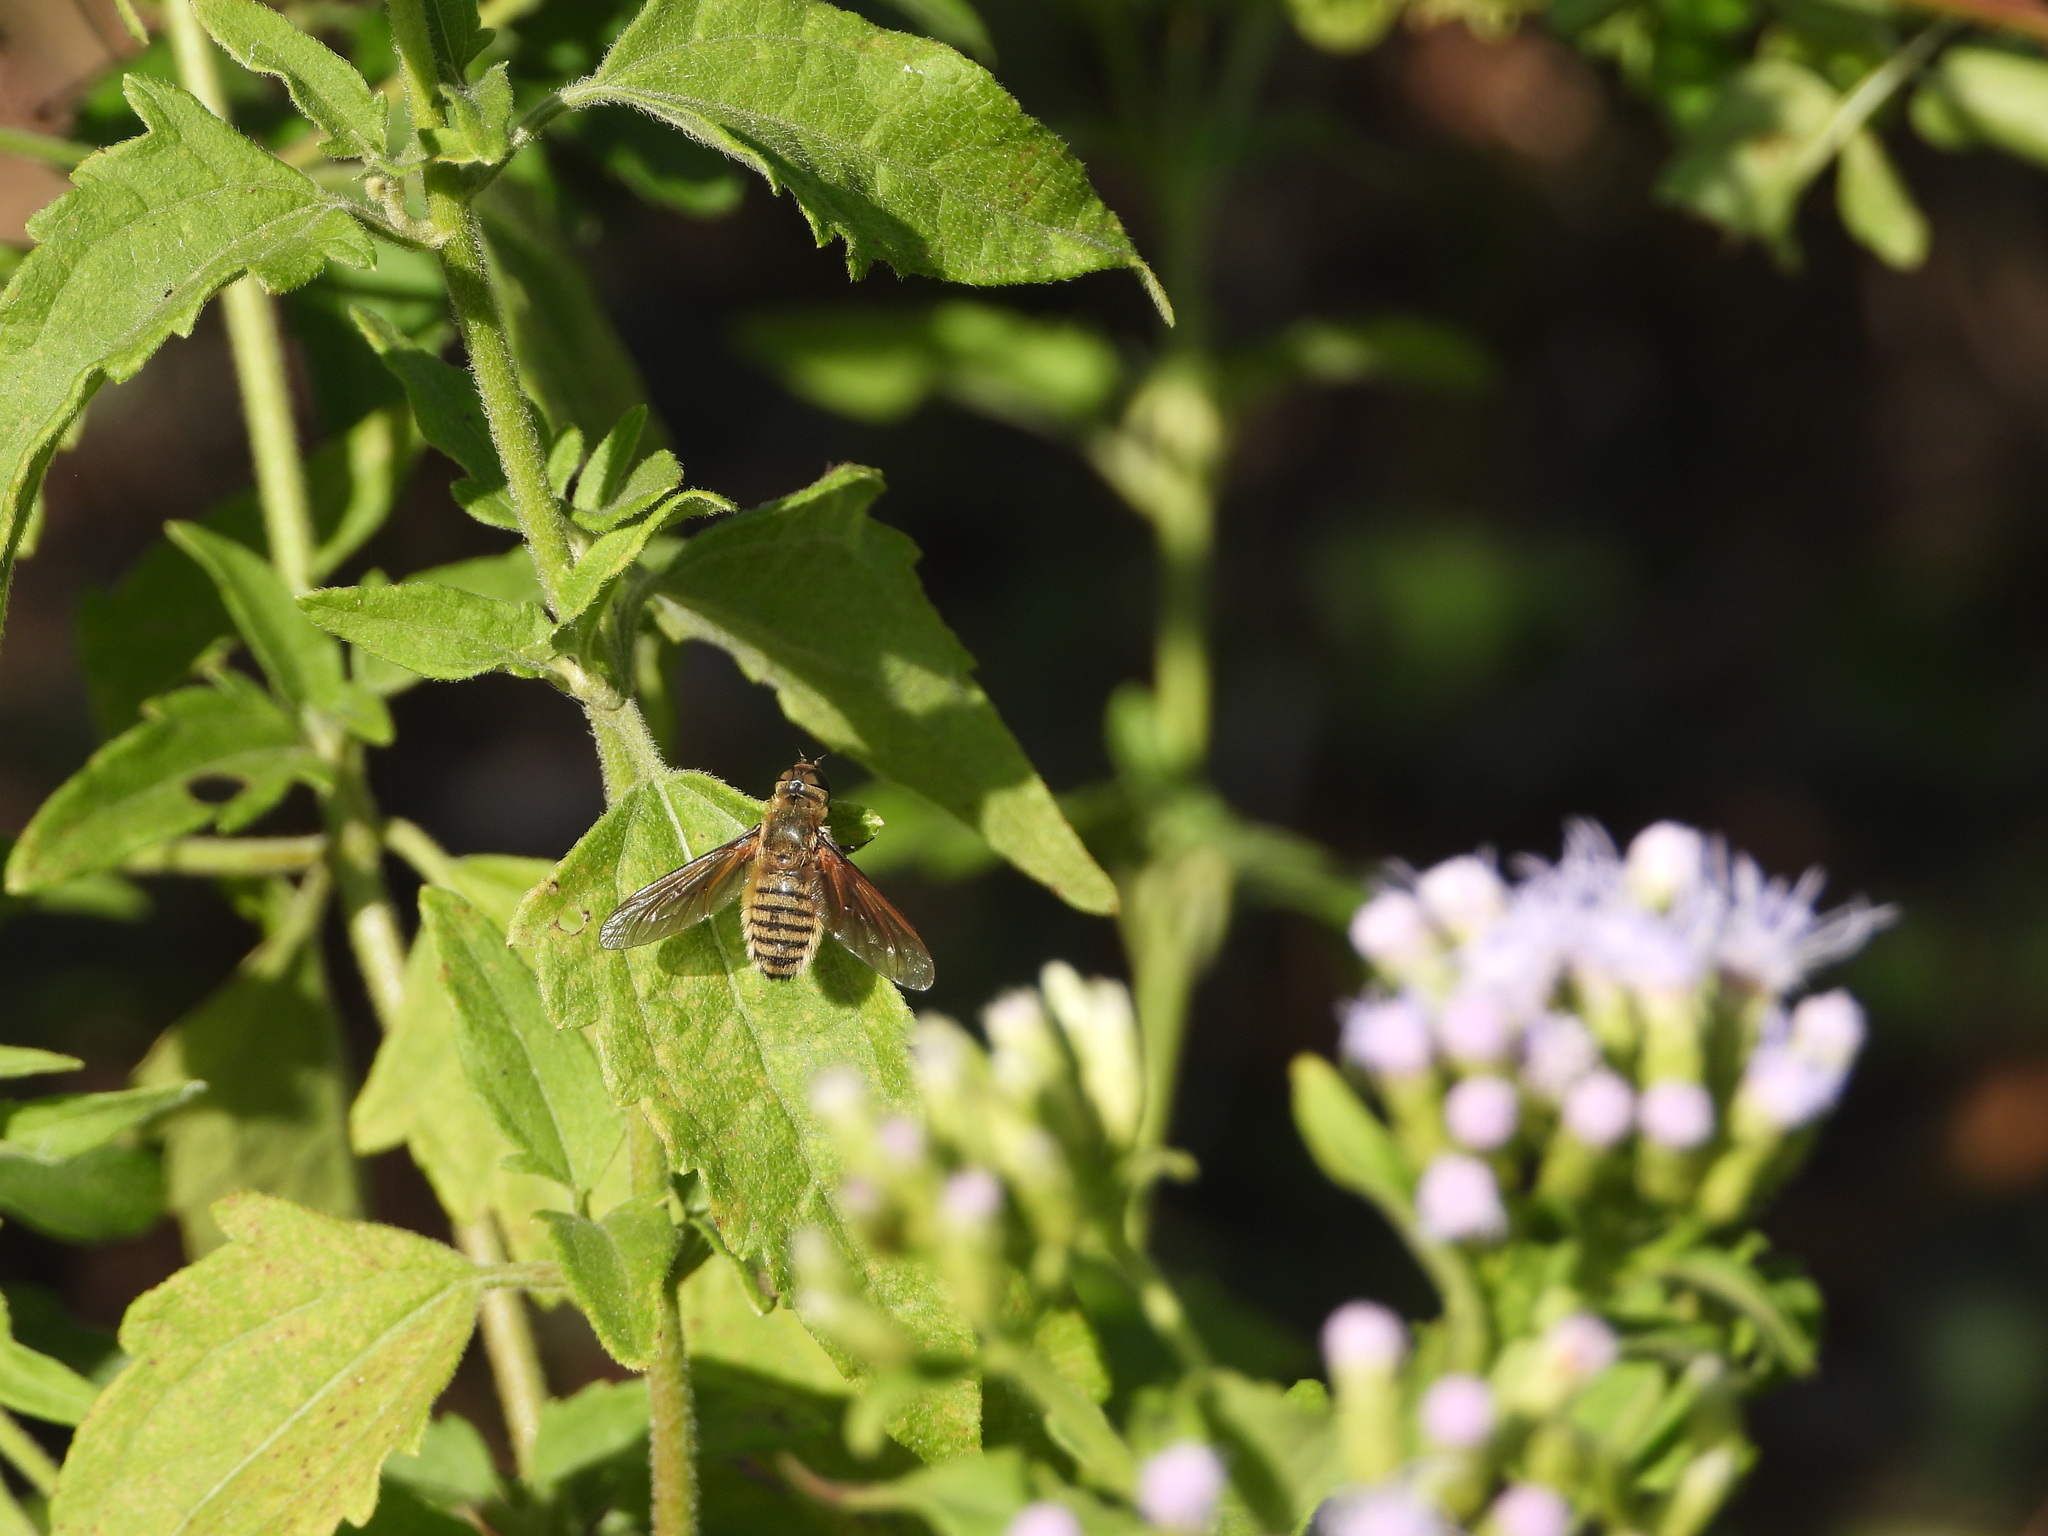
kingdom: Animalia
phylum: Arthropoda
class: Insecta
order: Diptera
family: Bombyliidae
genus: Poecilanthrax
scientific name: Poecilanthrax lucifer
